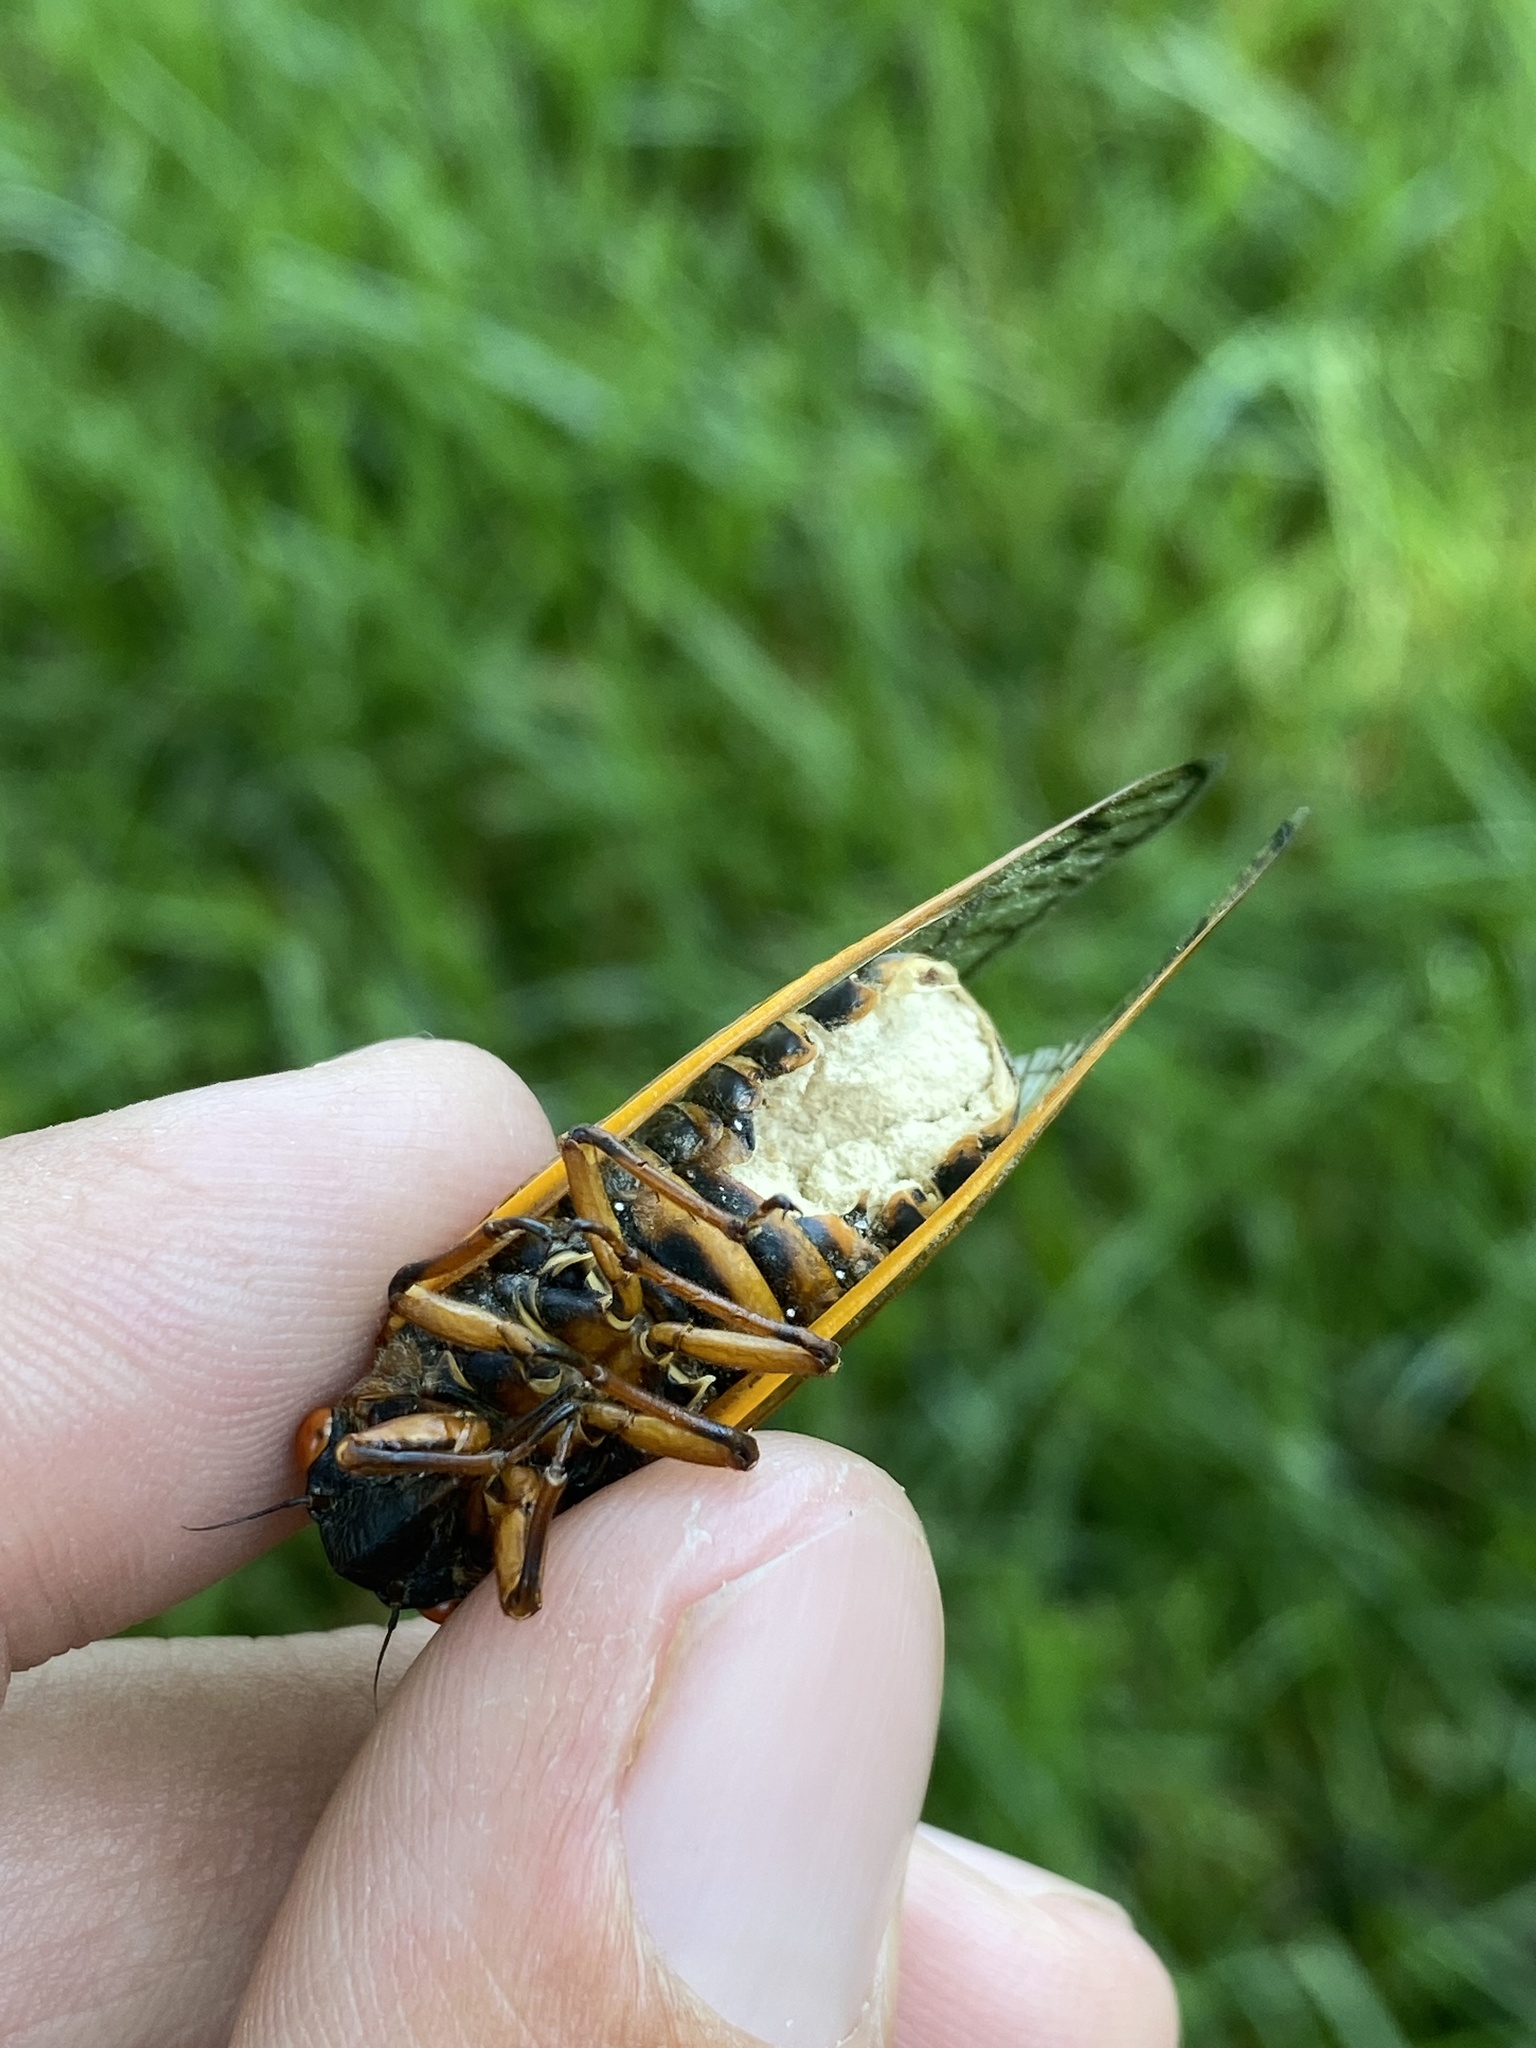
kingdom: Fungi
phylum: Entomophthoromycota
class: Entomophthoromycetes
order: Entomophthorales
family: Entomophthoraceae
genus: Massospora
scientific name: Massospora cicadina
